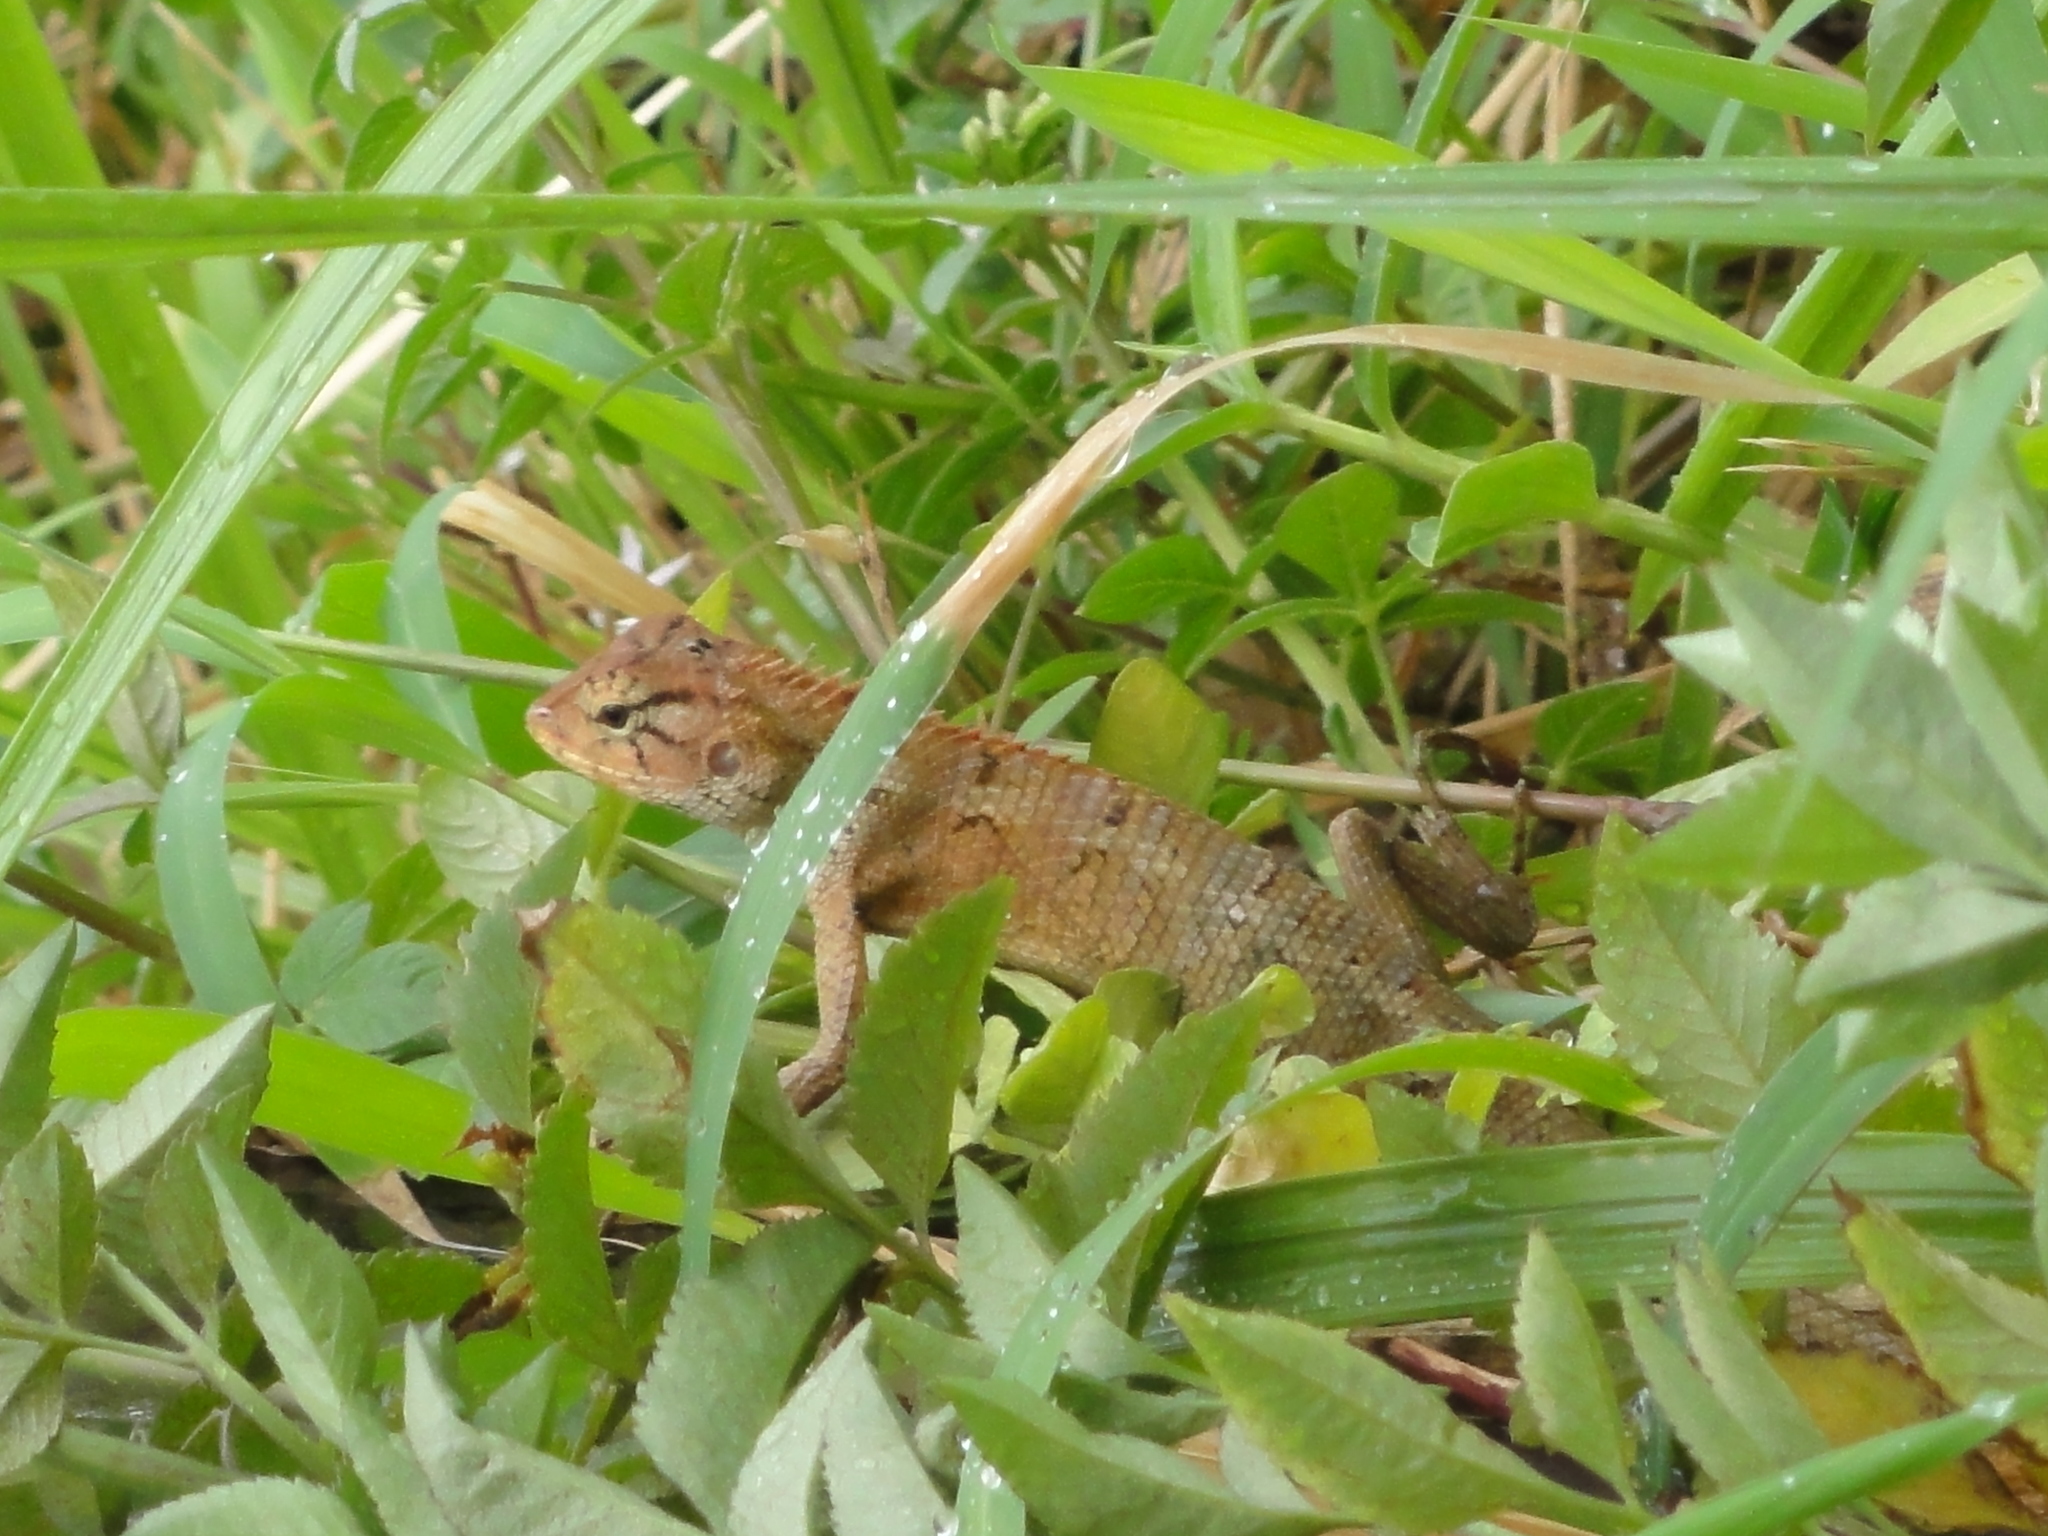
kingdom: Animalia
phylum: Chordata
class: Squamata
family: Agamidae
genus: Calotes
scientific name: Calotes versicolor
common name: Oriental garden lizard
